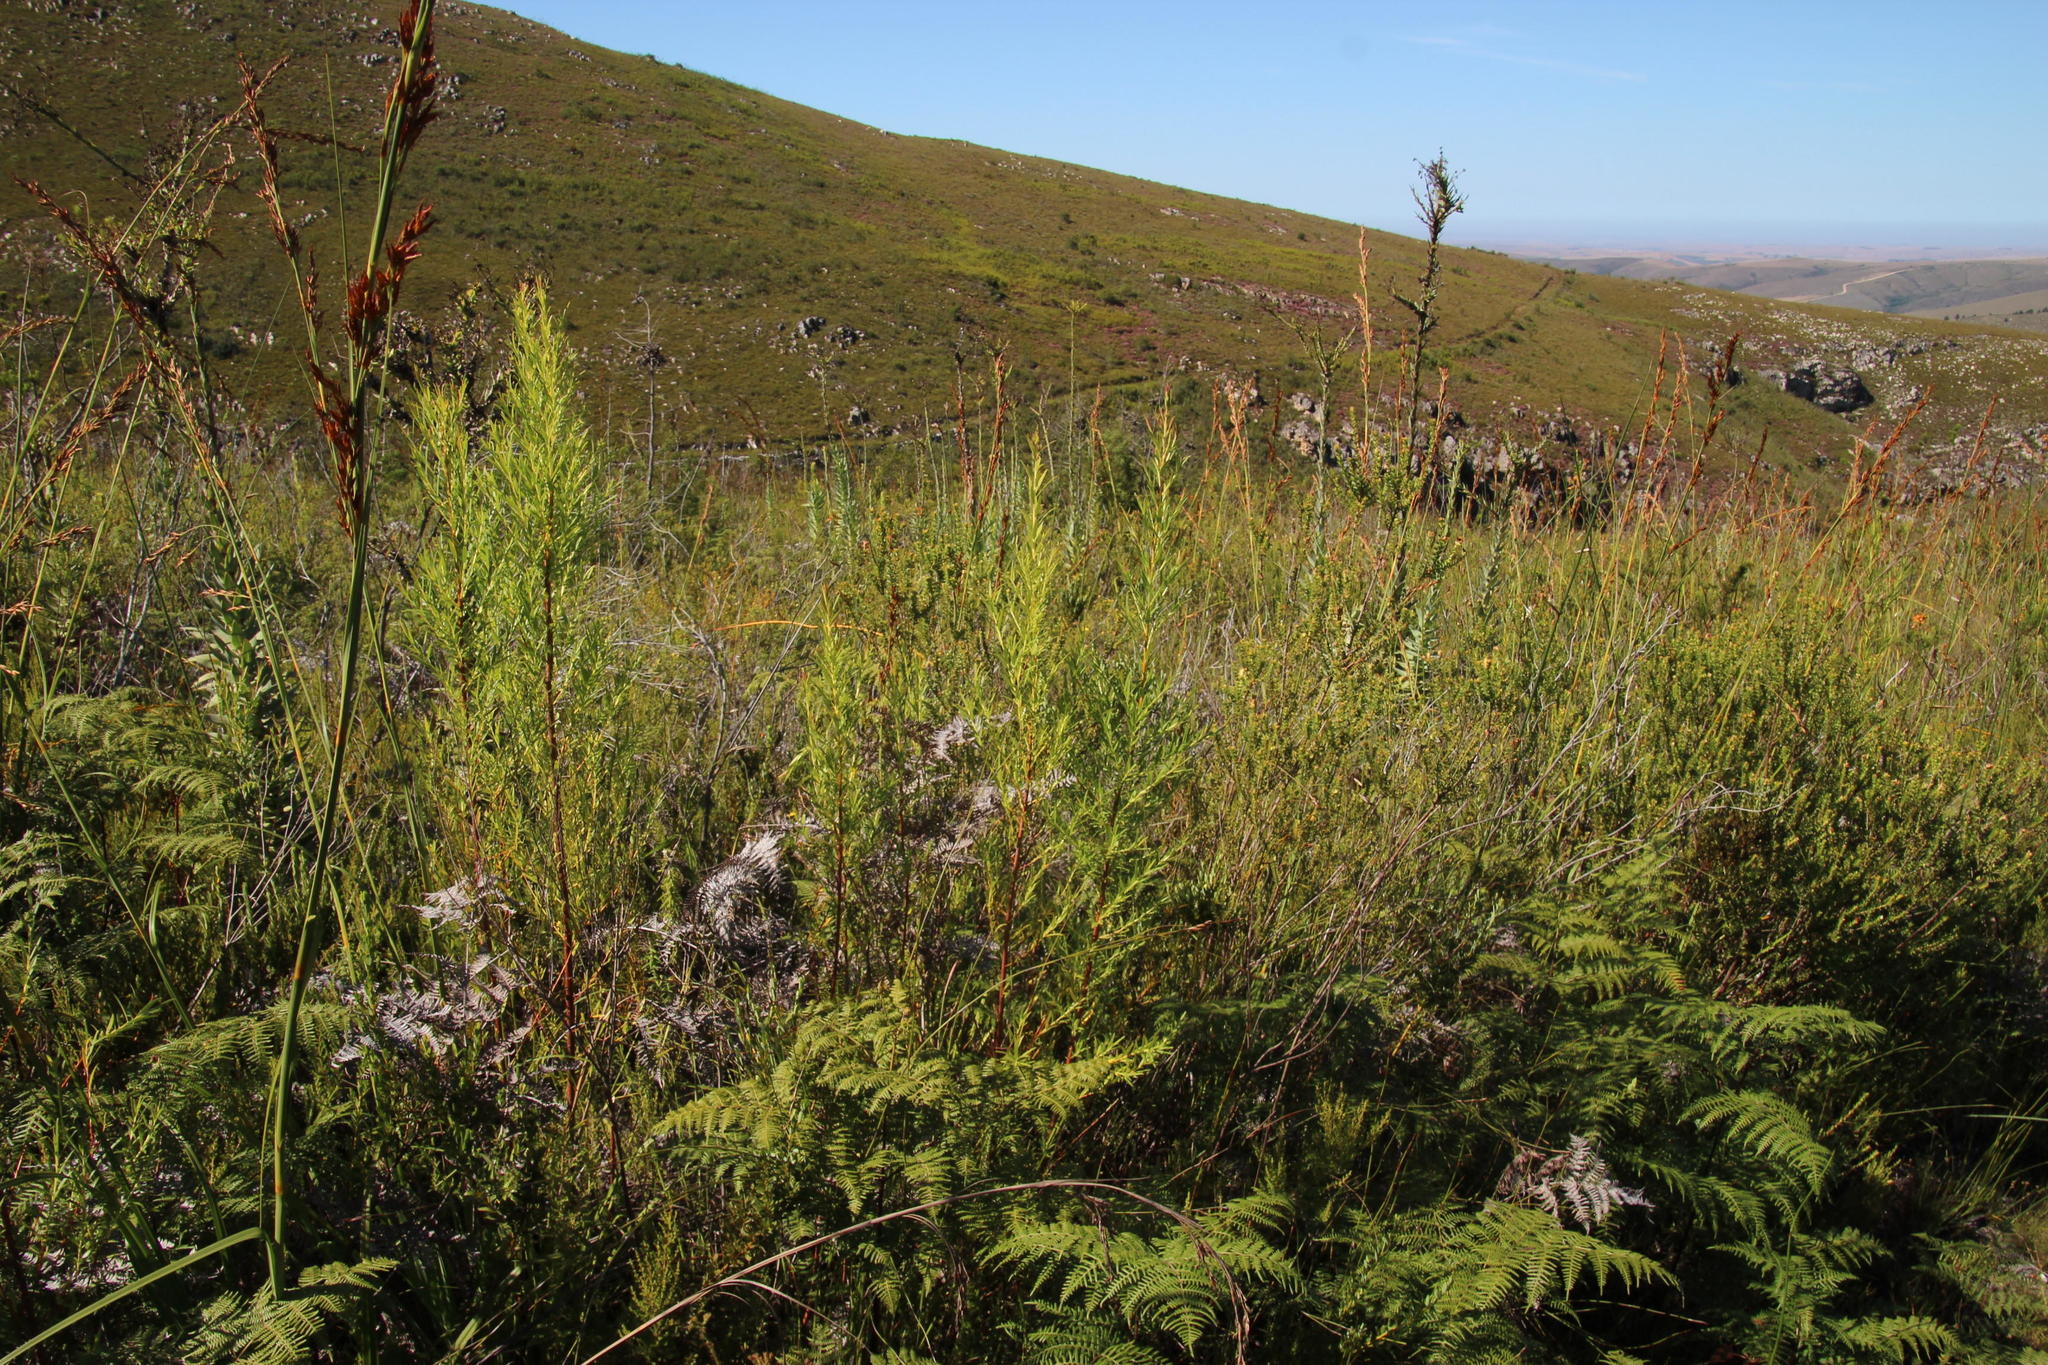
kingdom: Plantae
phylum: Tracheophyta
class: Magnoliopsida
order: Sapindales
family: Rutaceae
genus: Empleurum
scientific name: Empleurum unicapsulare
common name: False buchu
